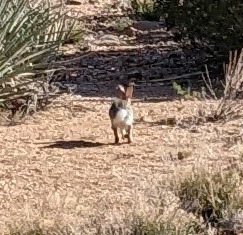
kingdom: Animalia
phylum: Chordata
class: Mammalia
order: Lagomorpha
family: Leporidae
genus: Sylvilagus
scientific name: Sylvilagus audubonii
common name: Desert cottontail
